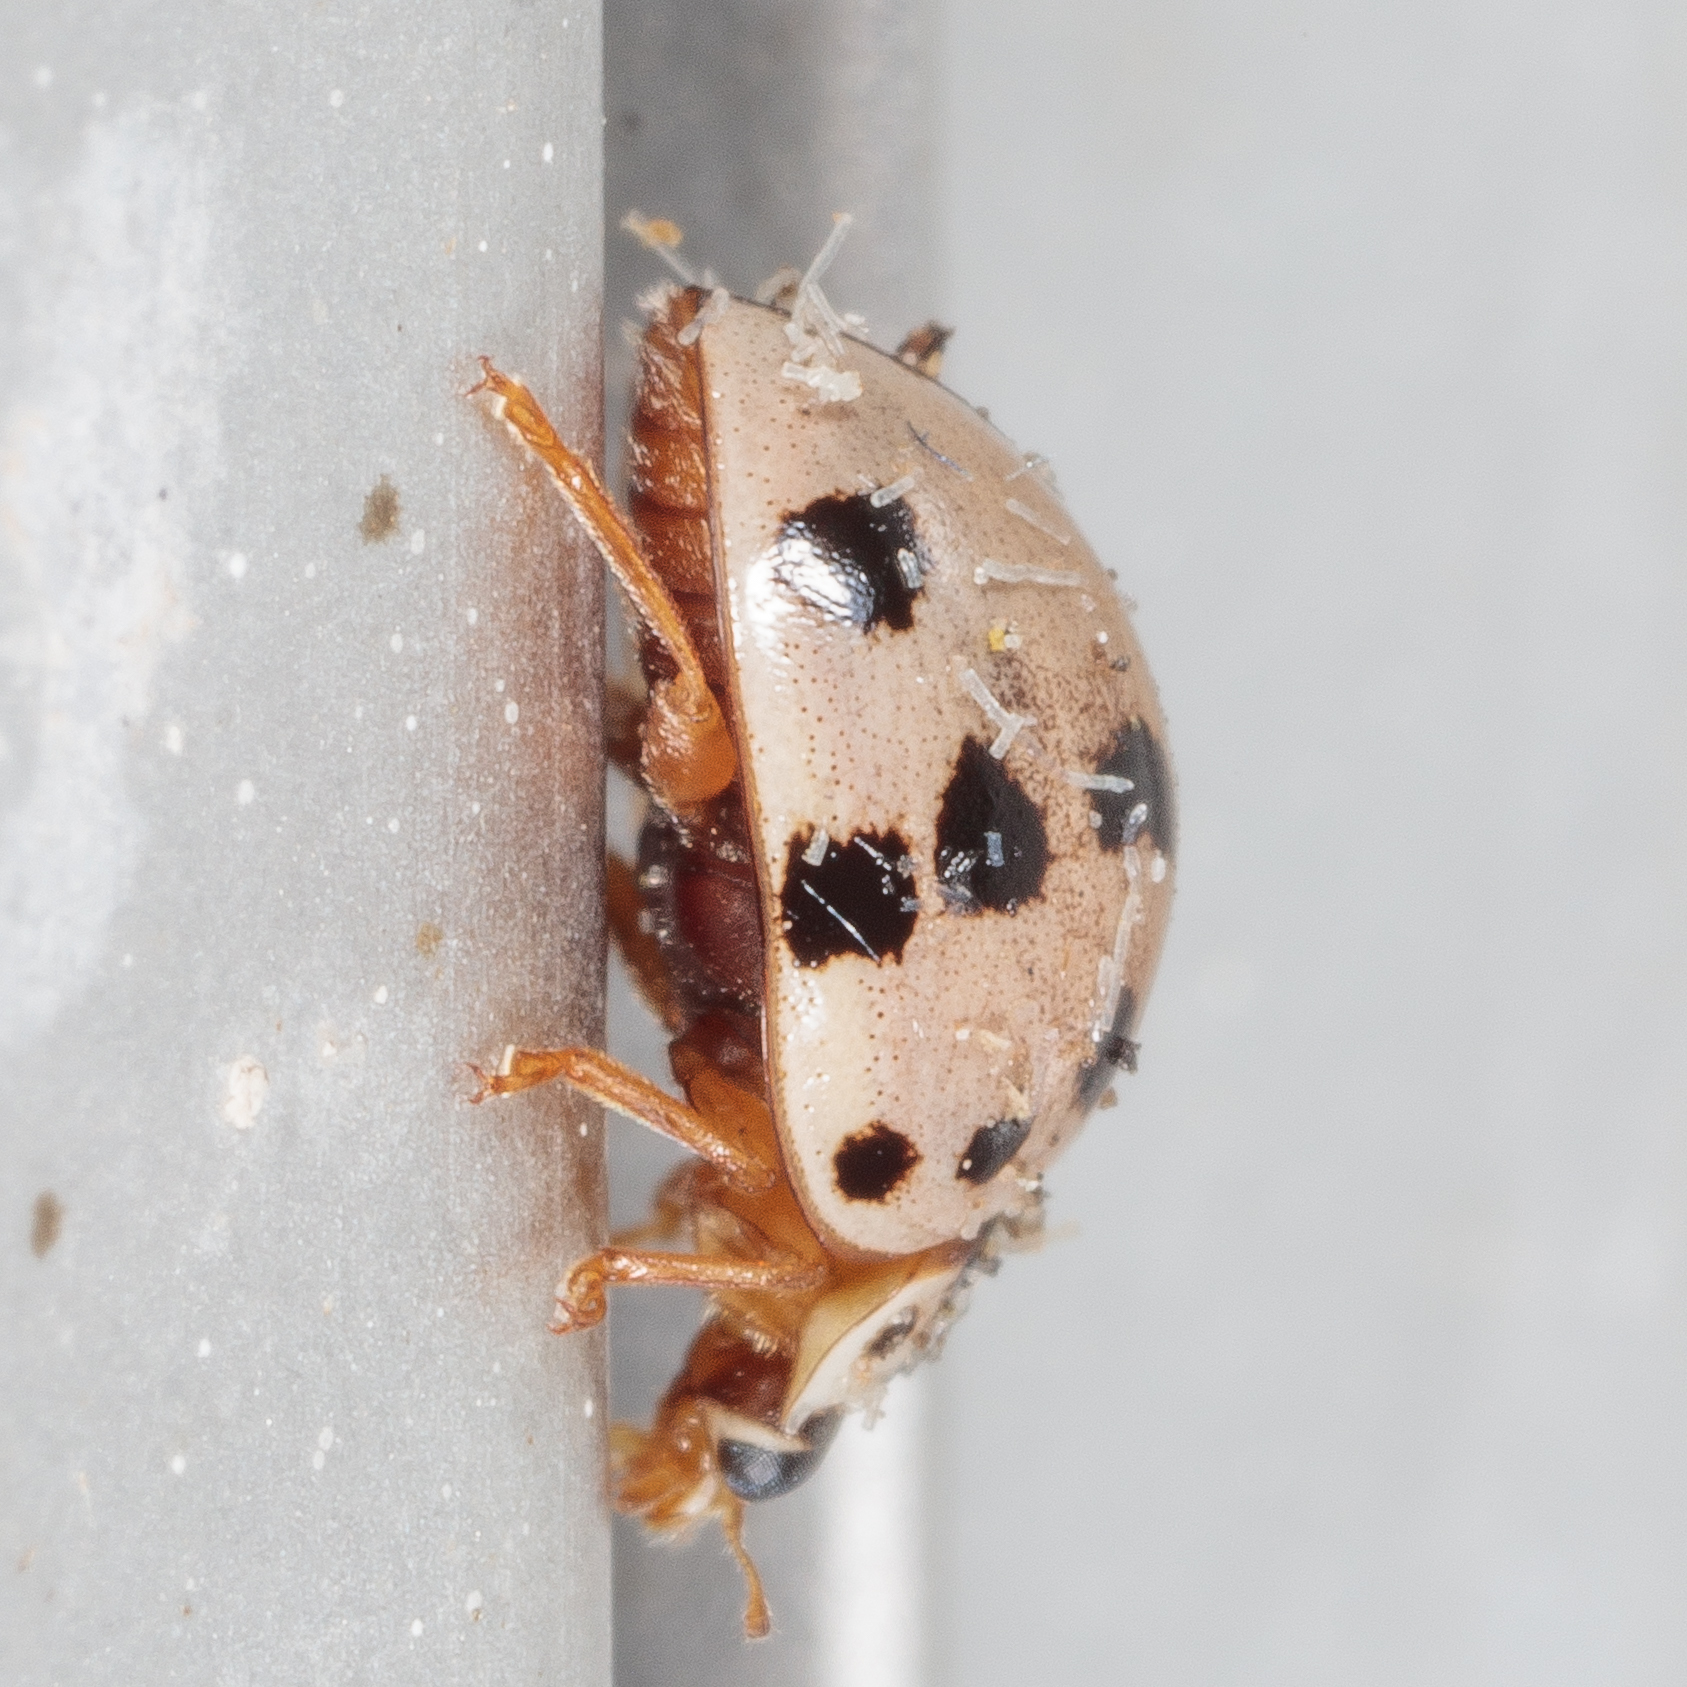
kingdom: Animalia
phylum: Arthropoda
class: Insecta
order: Coleoptera
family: Coccinellidae
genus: Olla
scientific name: Olla v-nigrum
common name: Ashy gray lady beetle
